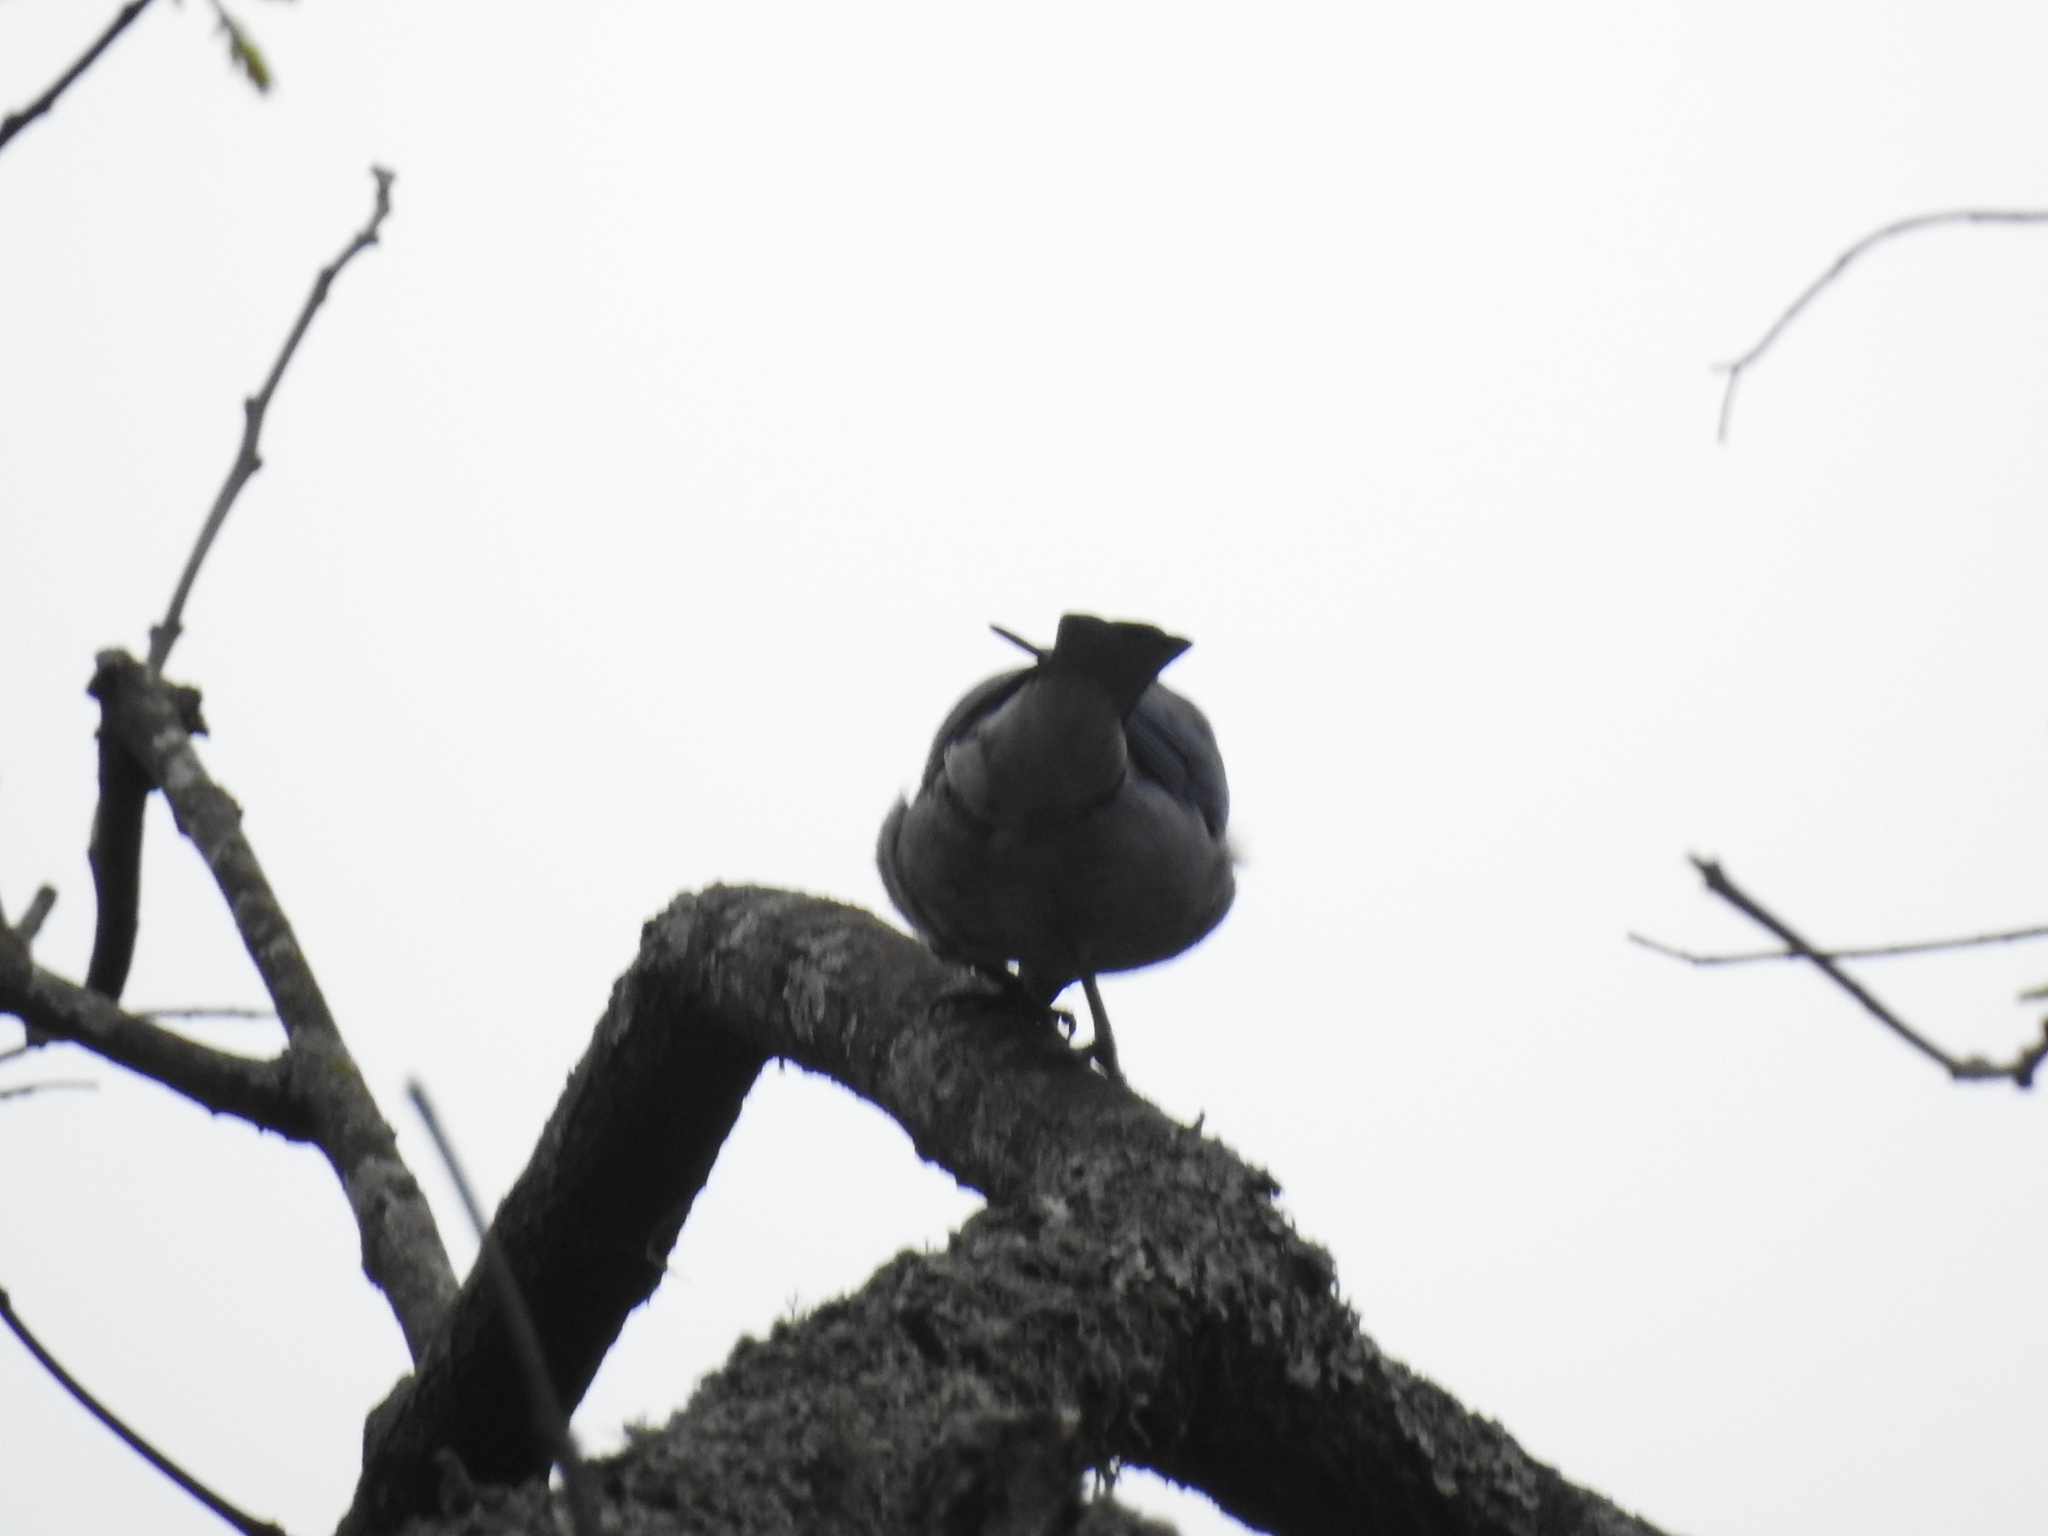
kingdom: Animalia
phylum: Chordata
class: Aves
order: Passeriformes
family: Thraupidae
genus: Thraupis
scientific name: Thraupis sayaca
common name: Sayaca tanager
